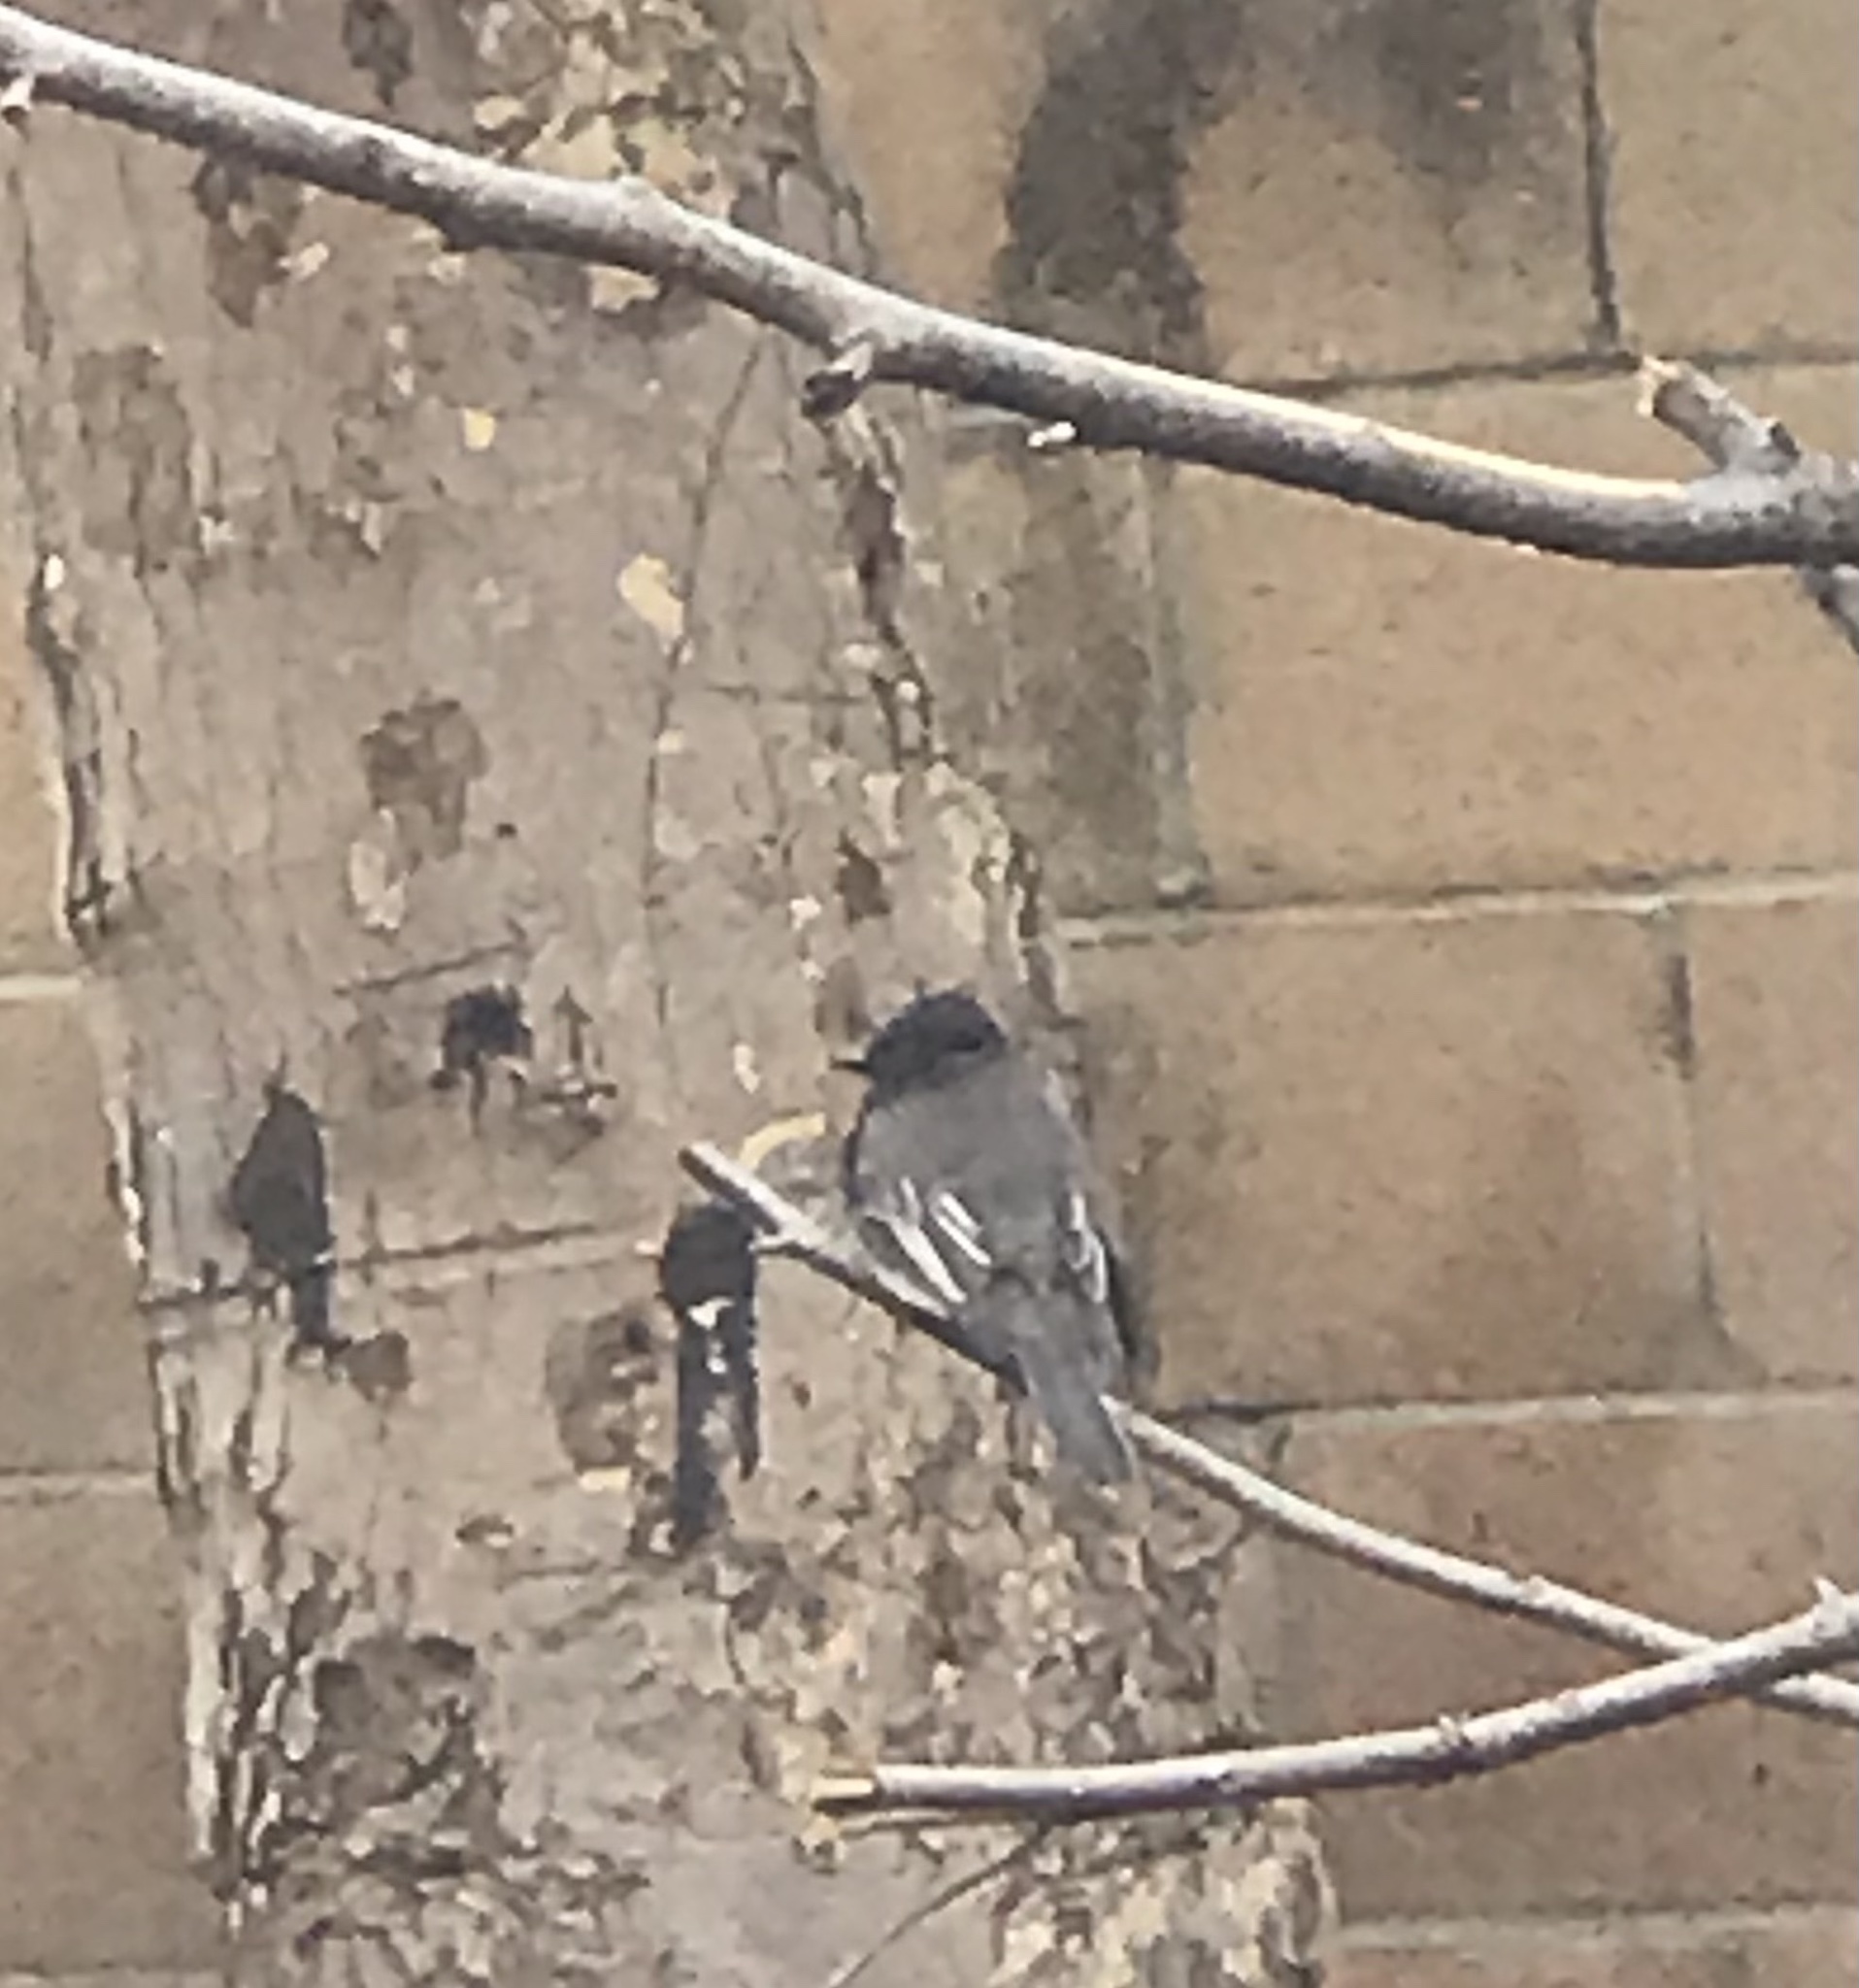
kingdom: Animalia
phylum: Chordata
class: Aves
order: Passeriformes
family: Tyrannidae
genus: Sayornis
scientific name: Sayornis nigricans
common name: Black phoebe
